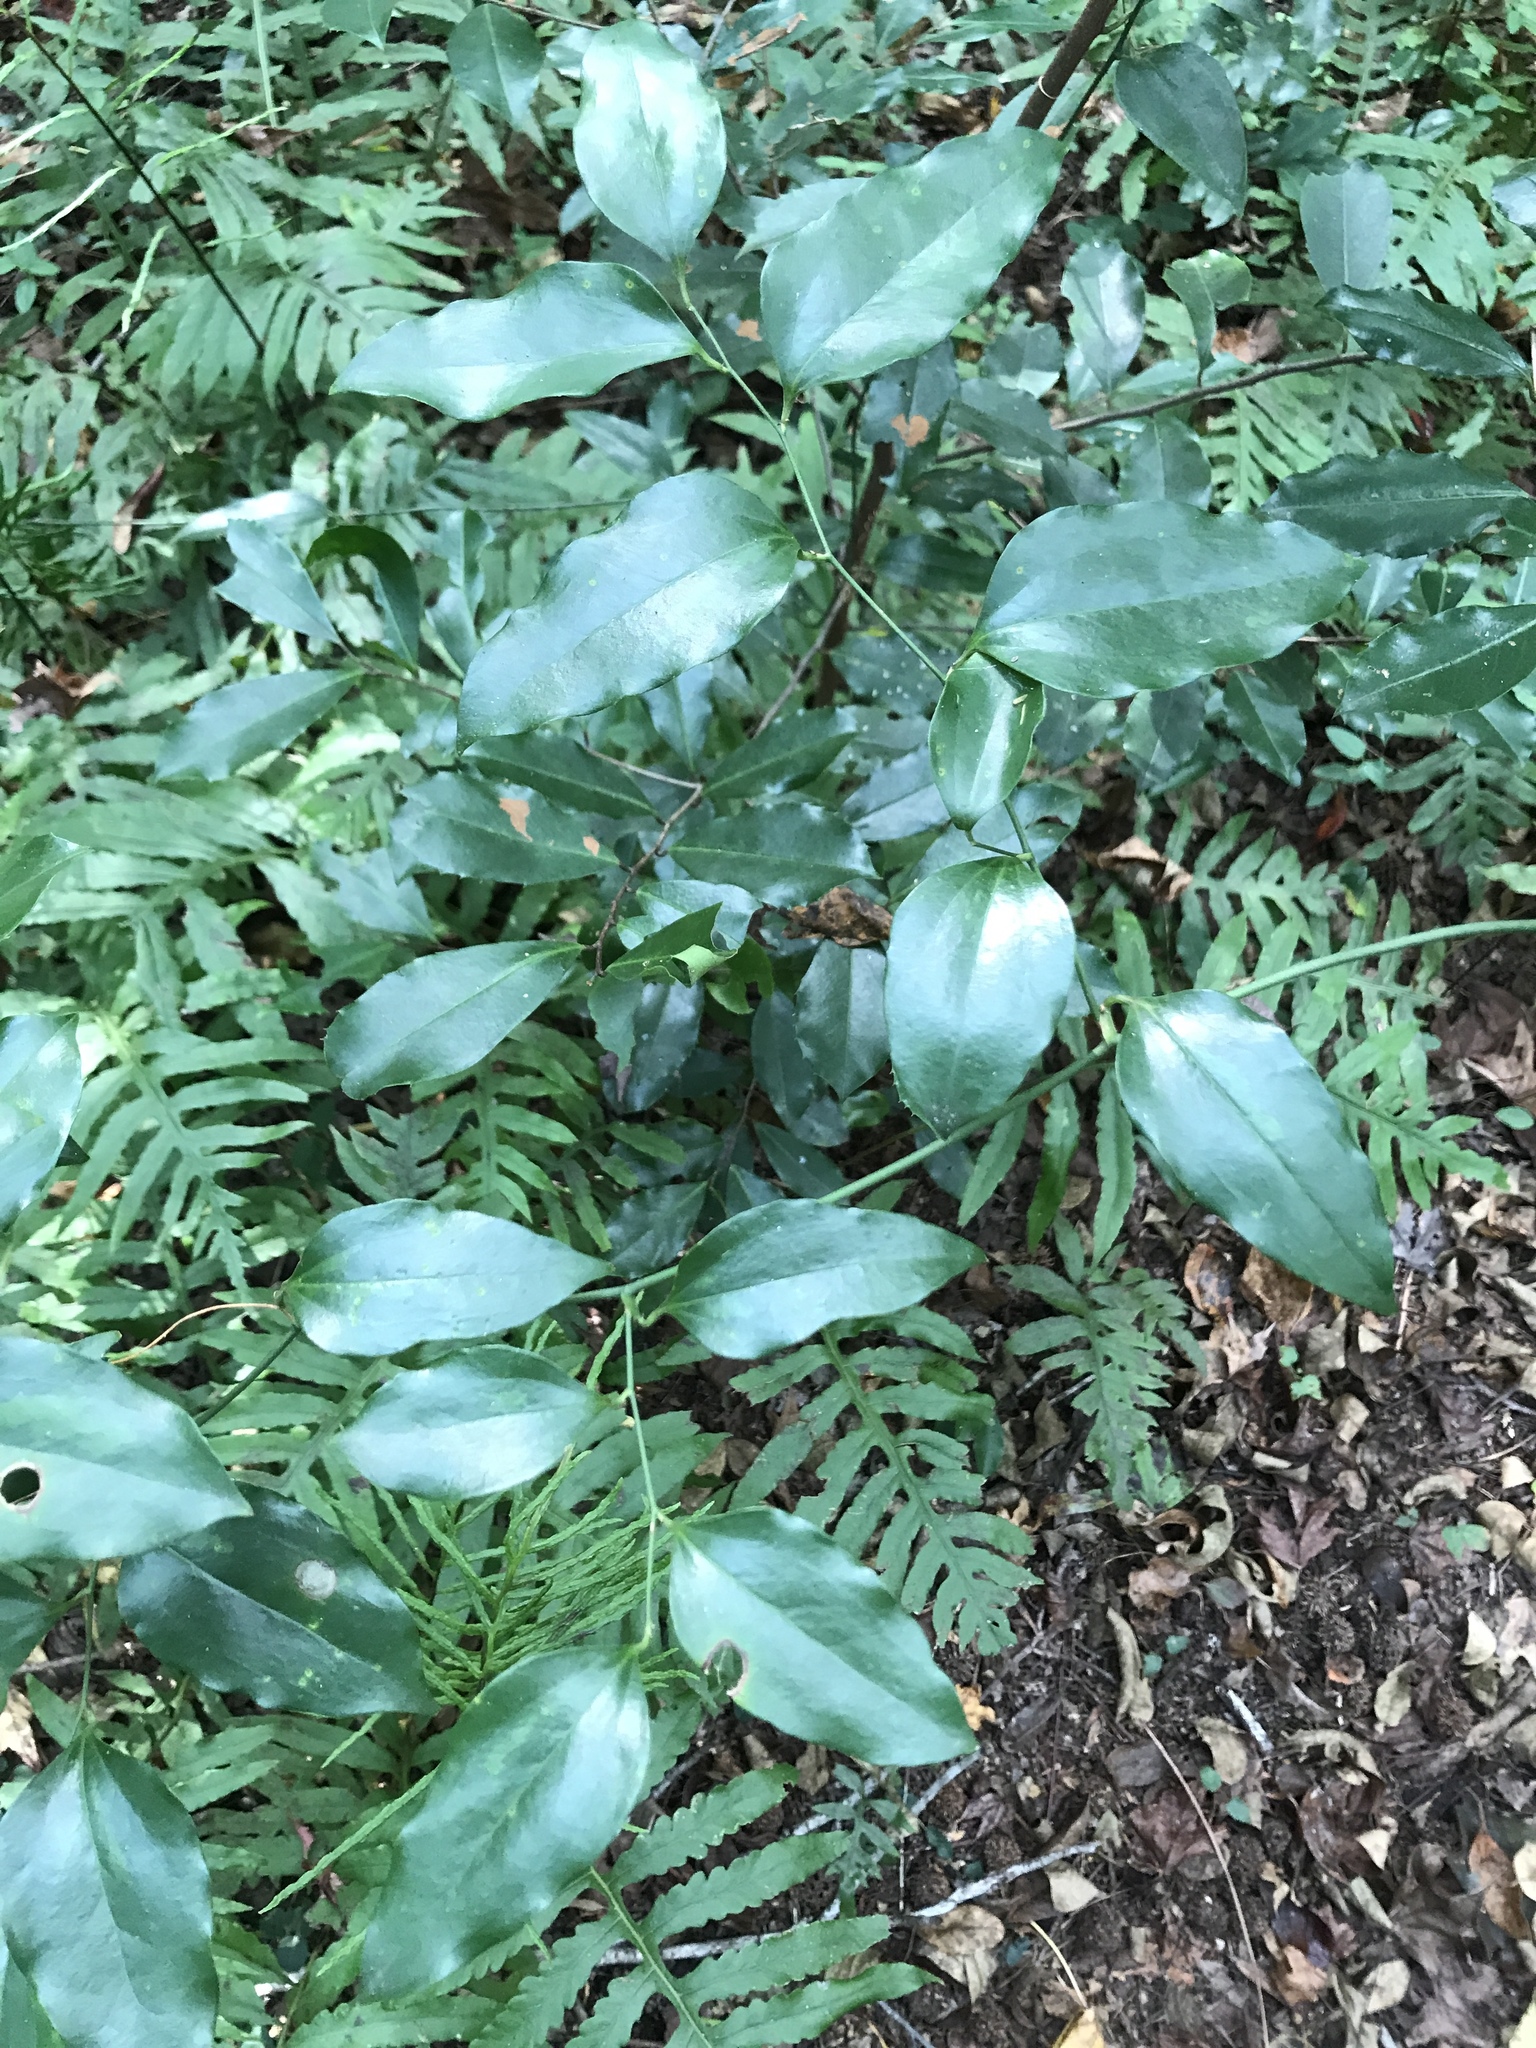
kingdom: Plantae
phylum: Tracheophyta
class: Liliopsida
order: Liliales
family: Smilacaceae
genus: Smilax
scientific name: Smilax maritima
